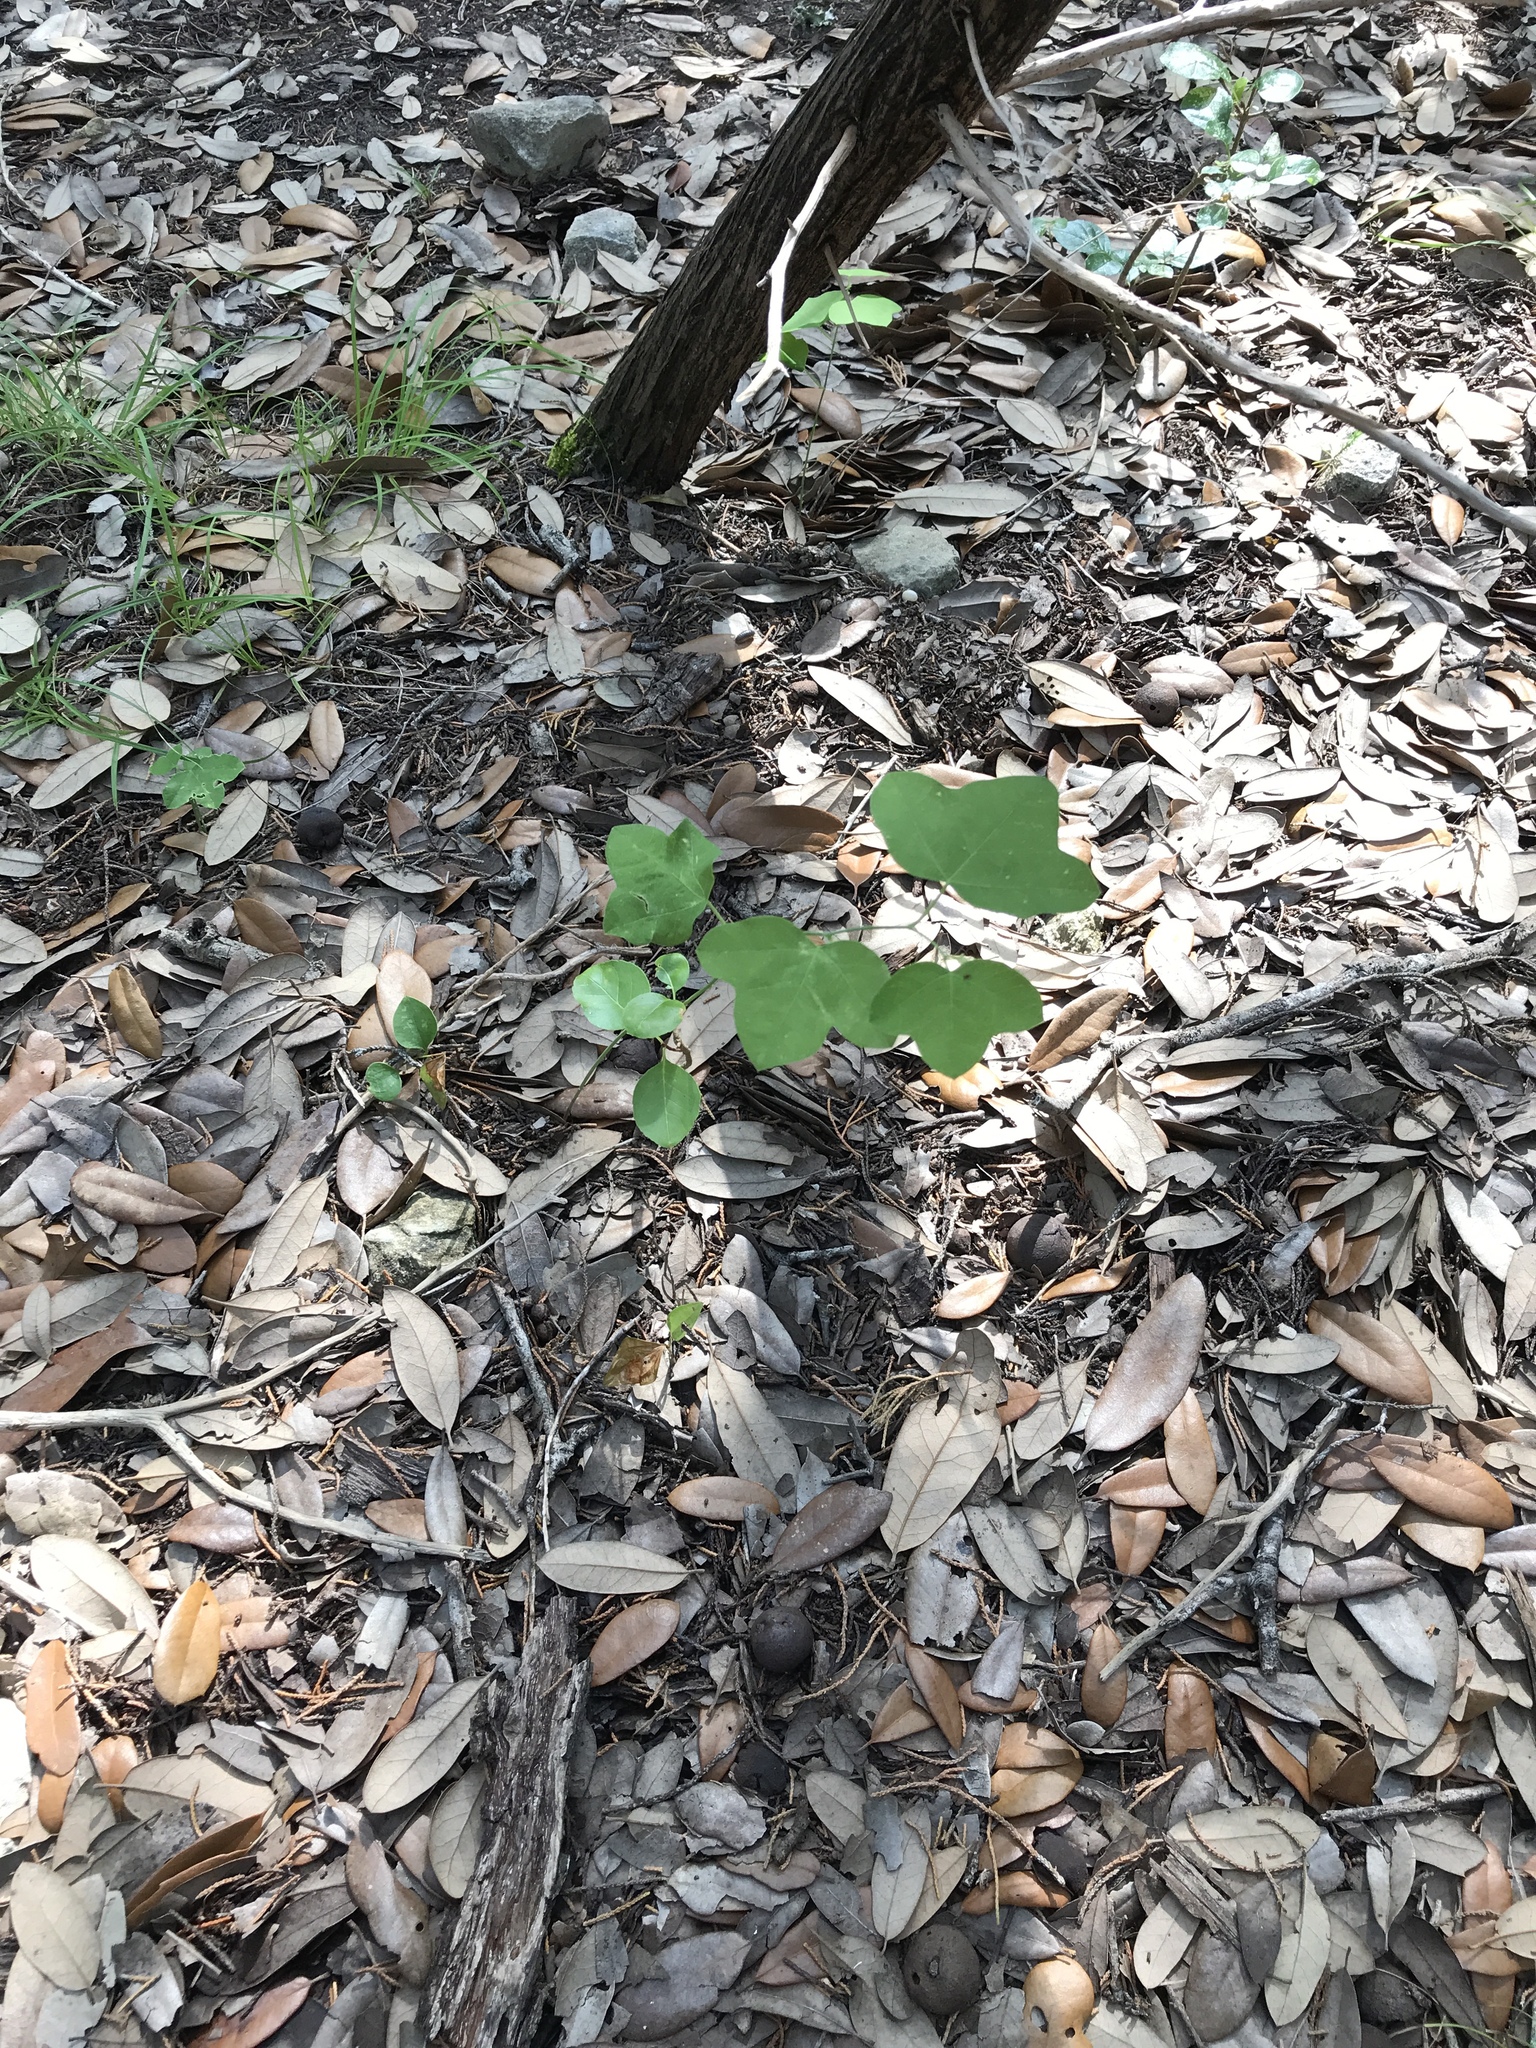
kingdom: Plantae
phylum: Tracheophyta
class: Magnoliopsida
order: Malpighiales
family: Passifloraceae
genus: Passiflora
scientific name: Passiflora lutea
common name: Yellow passionflower
